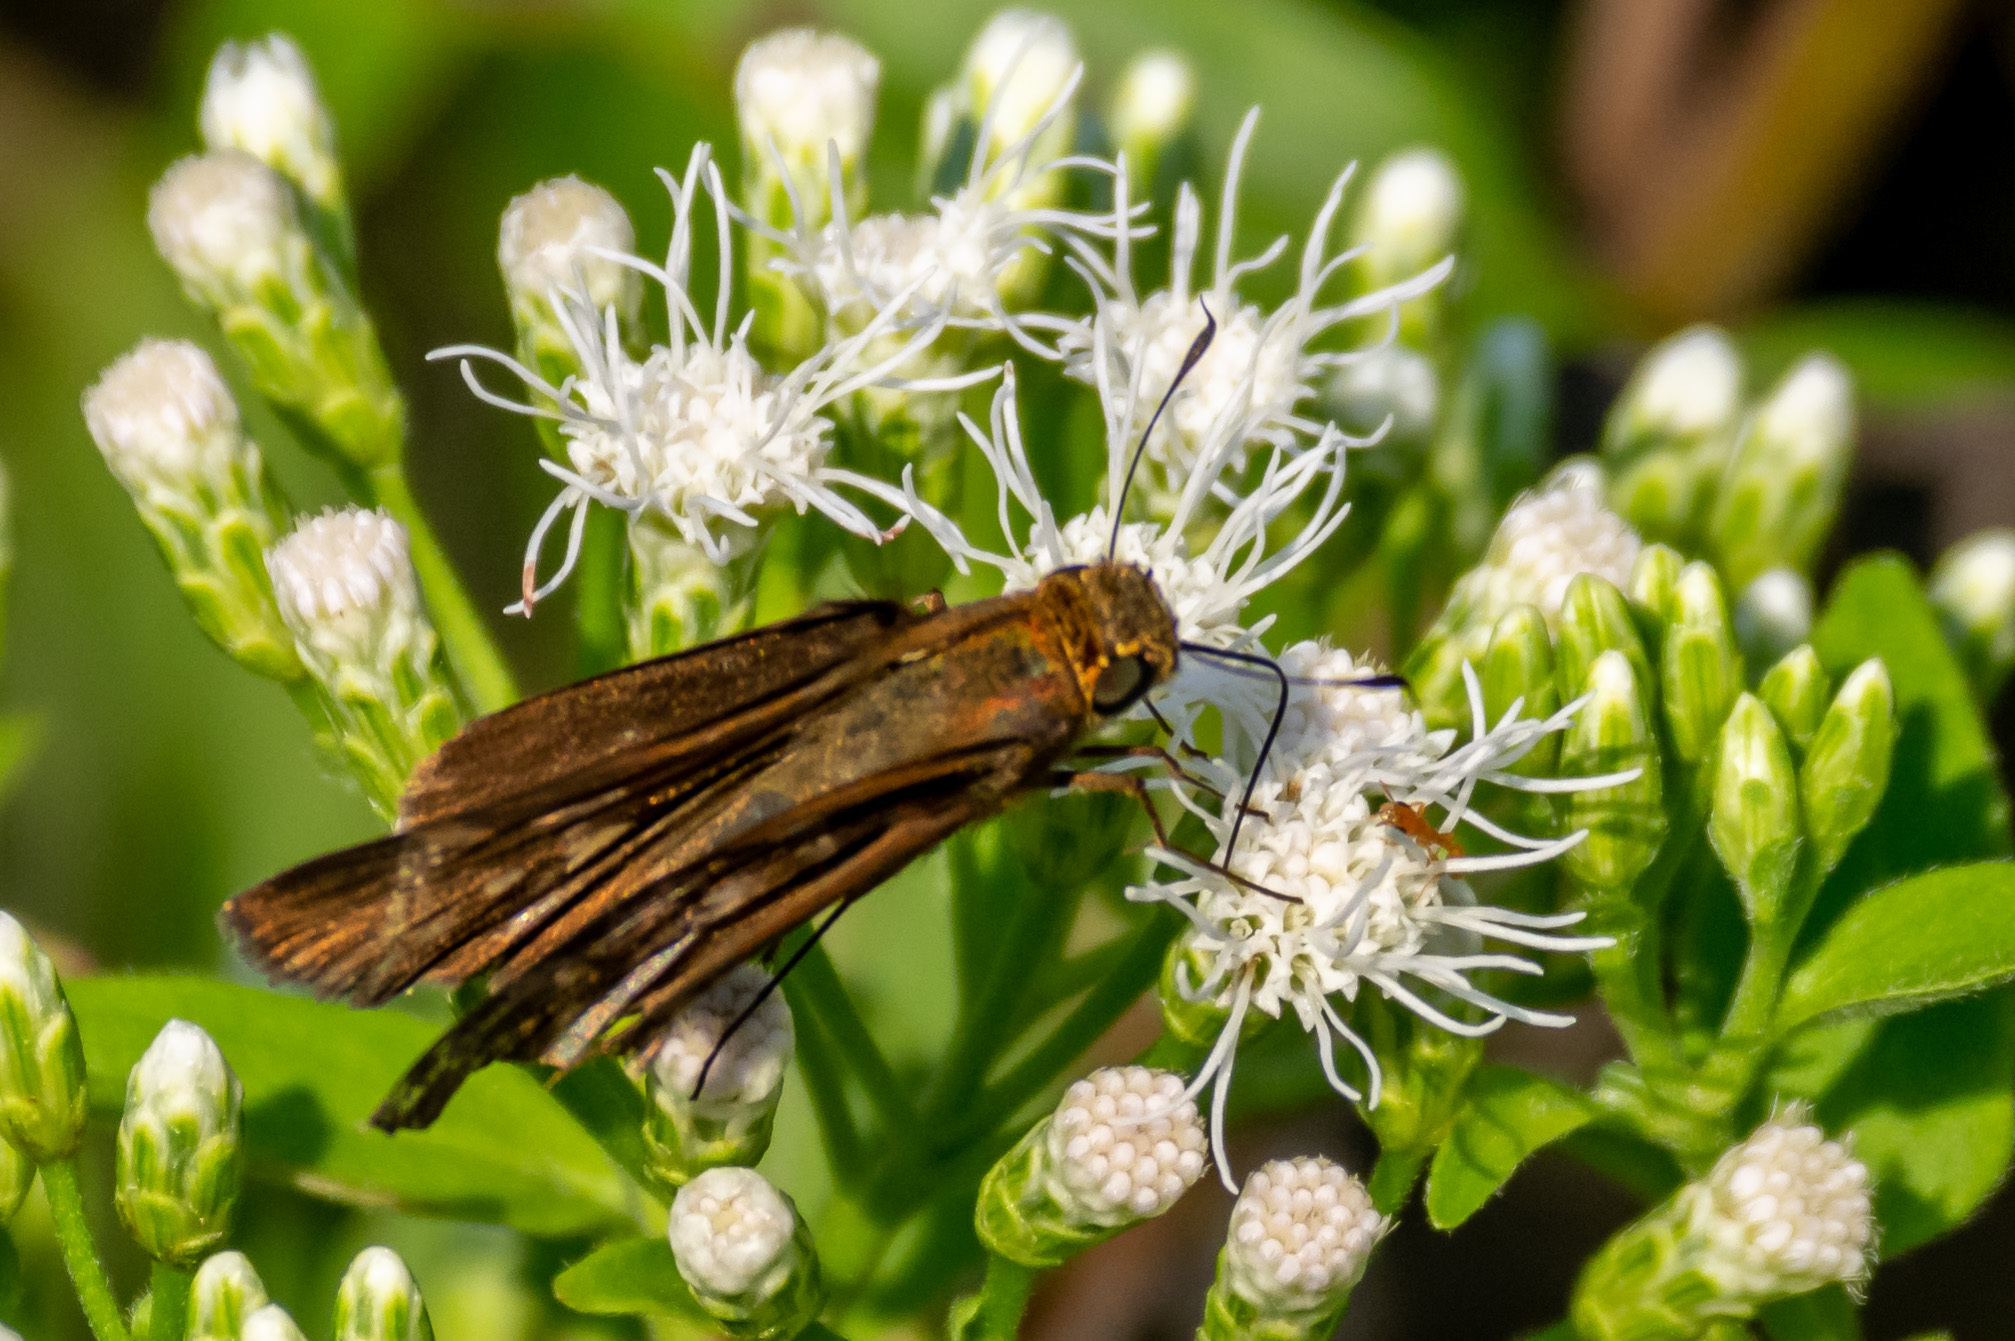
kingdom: Animalia
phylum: Arthropoda
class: Insecta
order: Lepidoptera
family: Hesperiidae
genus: Panoquina
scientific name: Panoquina ocola
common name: Ocola skipper
